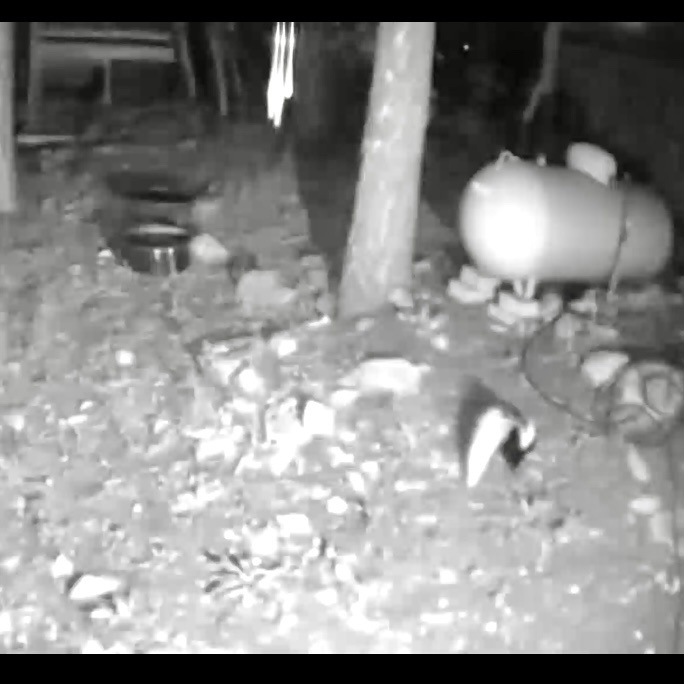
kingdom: Animalia
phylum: Chordata
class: Mammalia
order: Carnivora
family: Mephitidae
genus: Mephitis
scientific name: Mephitis mephitis
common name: Striped skunk
